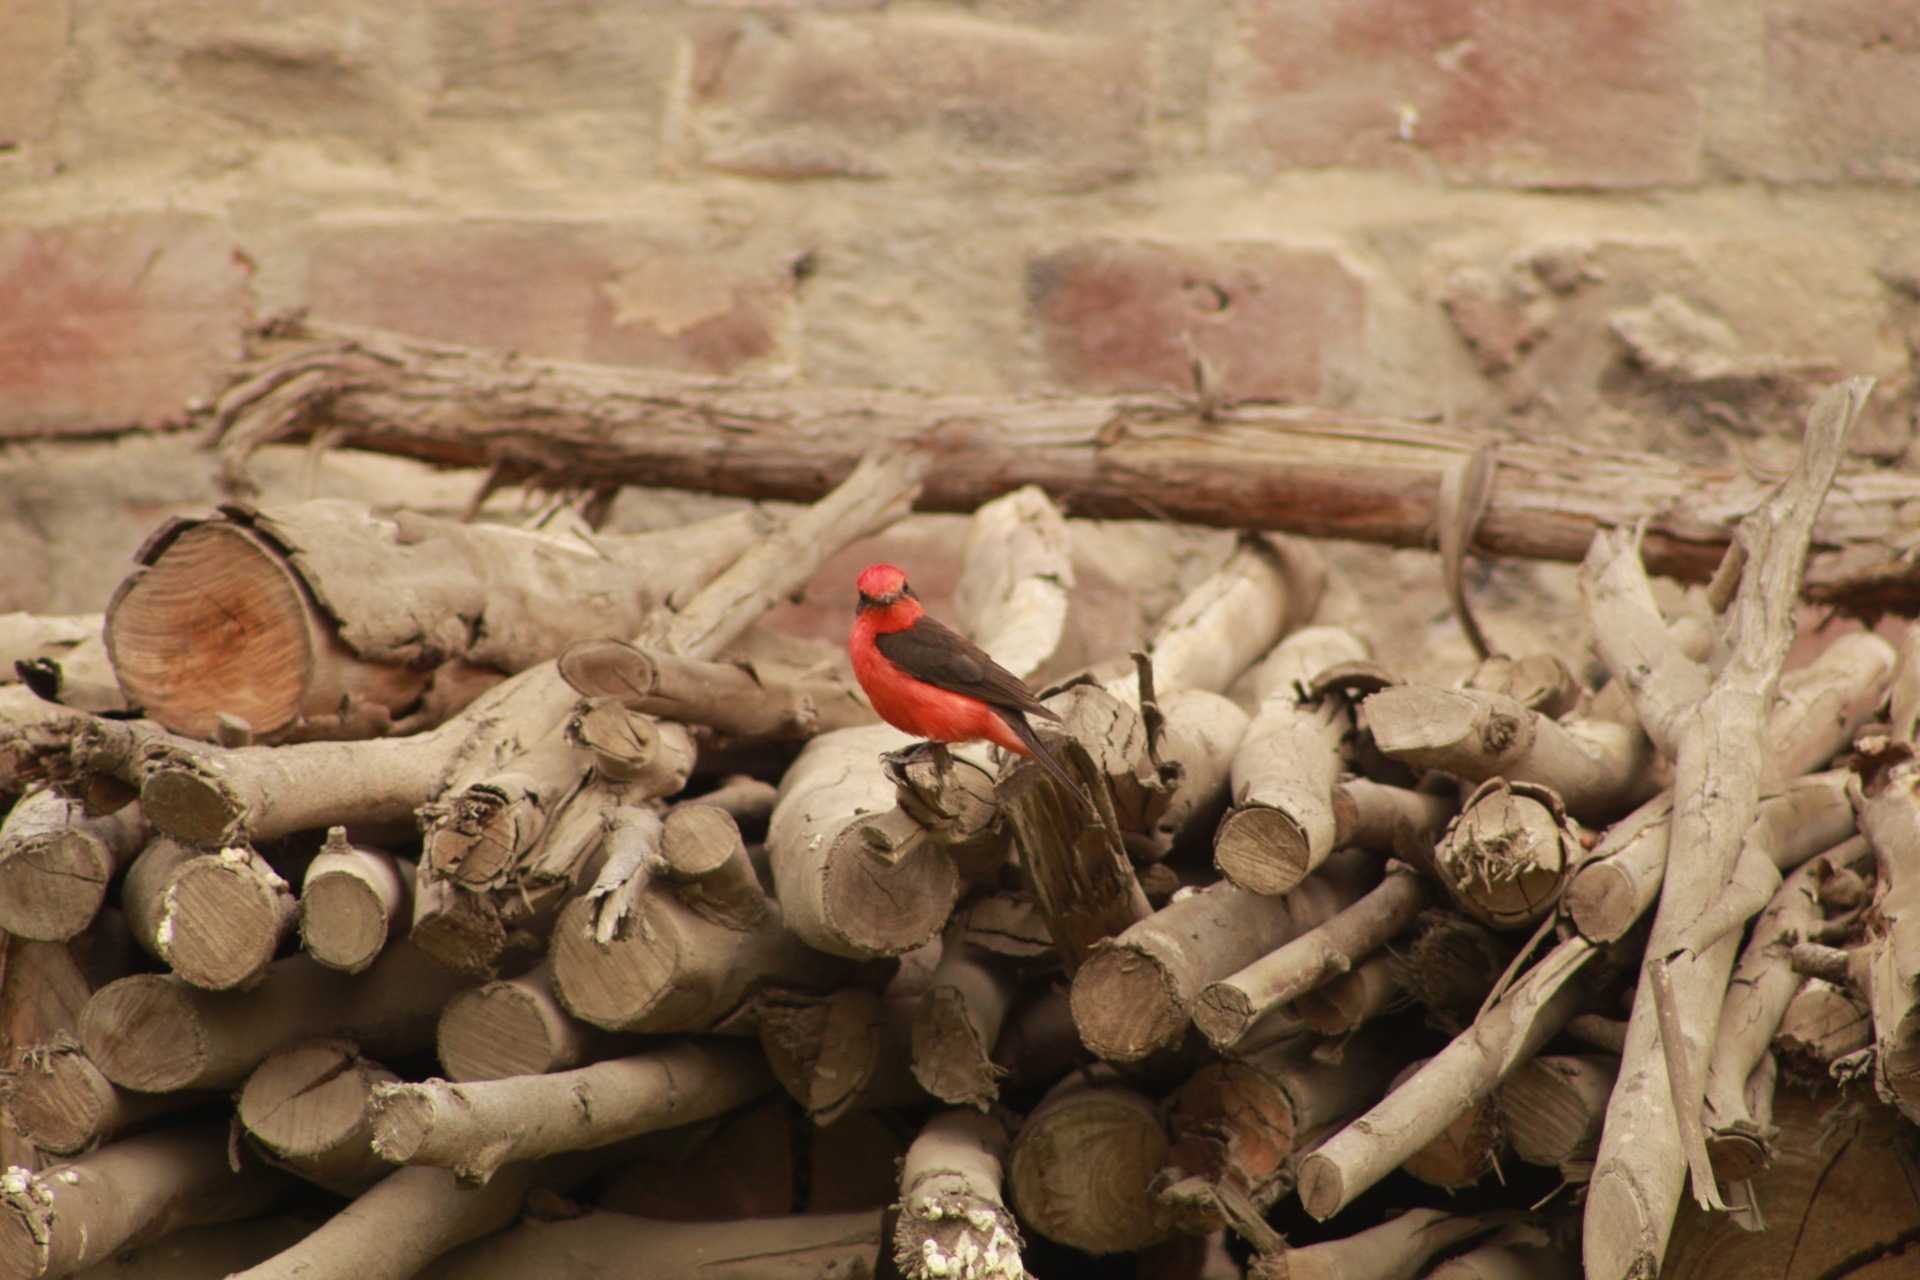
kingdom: Animalia
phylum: Chordata
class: Aves
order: Passeriformes
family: Tyrannidae
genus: Pyrocephalus
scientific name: Pyrocephalus rubinus
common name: Vermilion flycatcher
